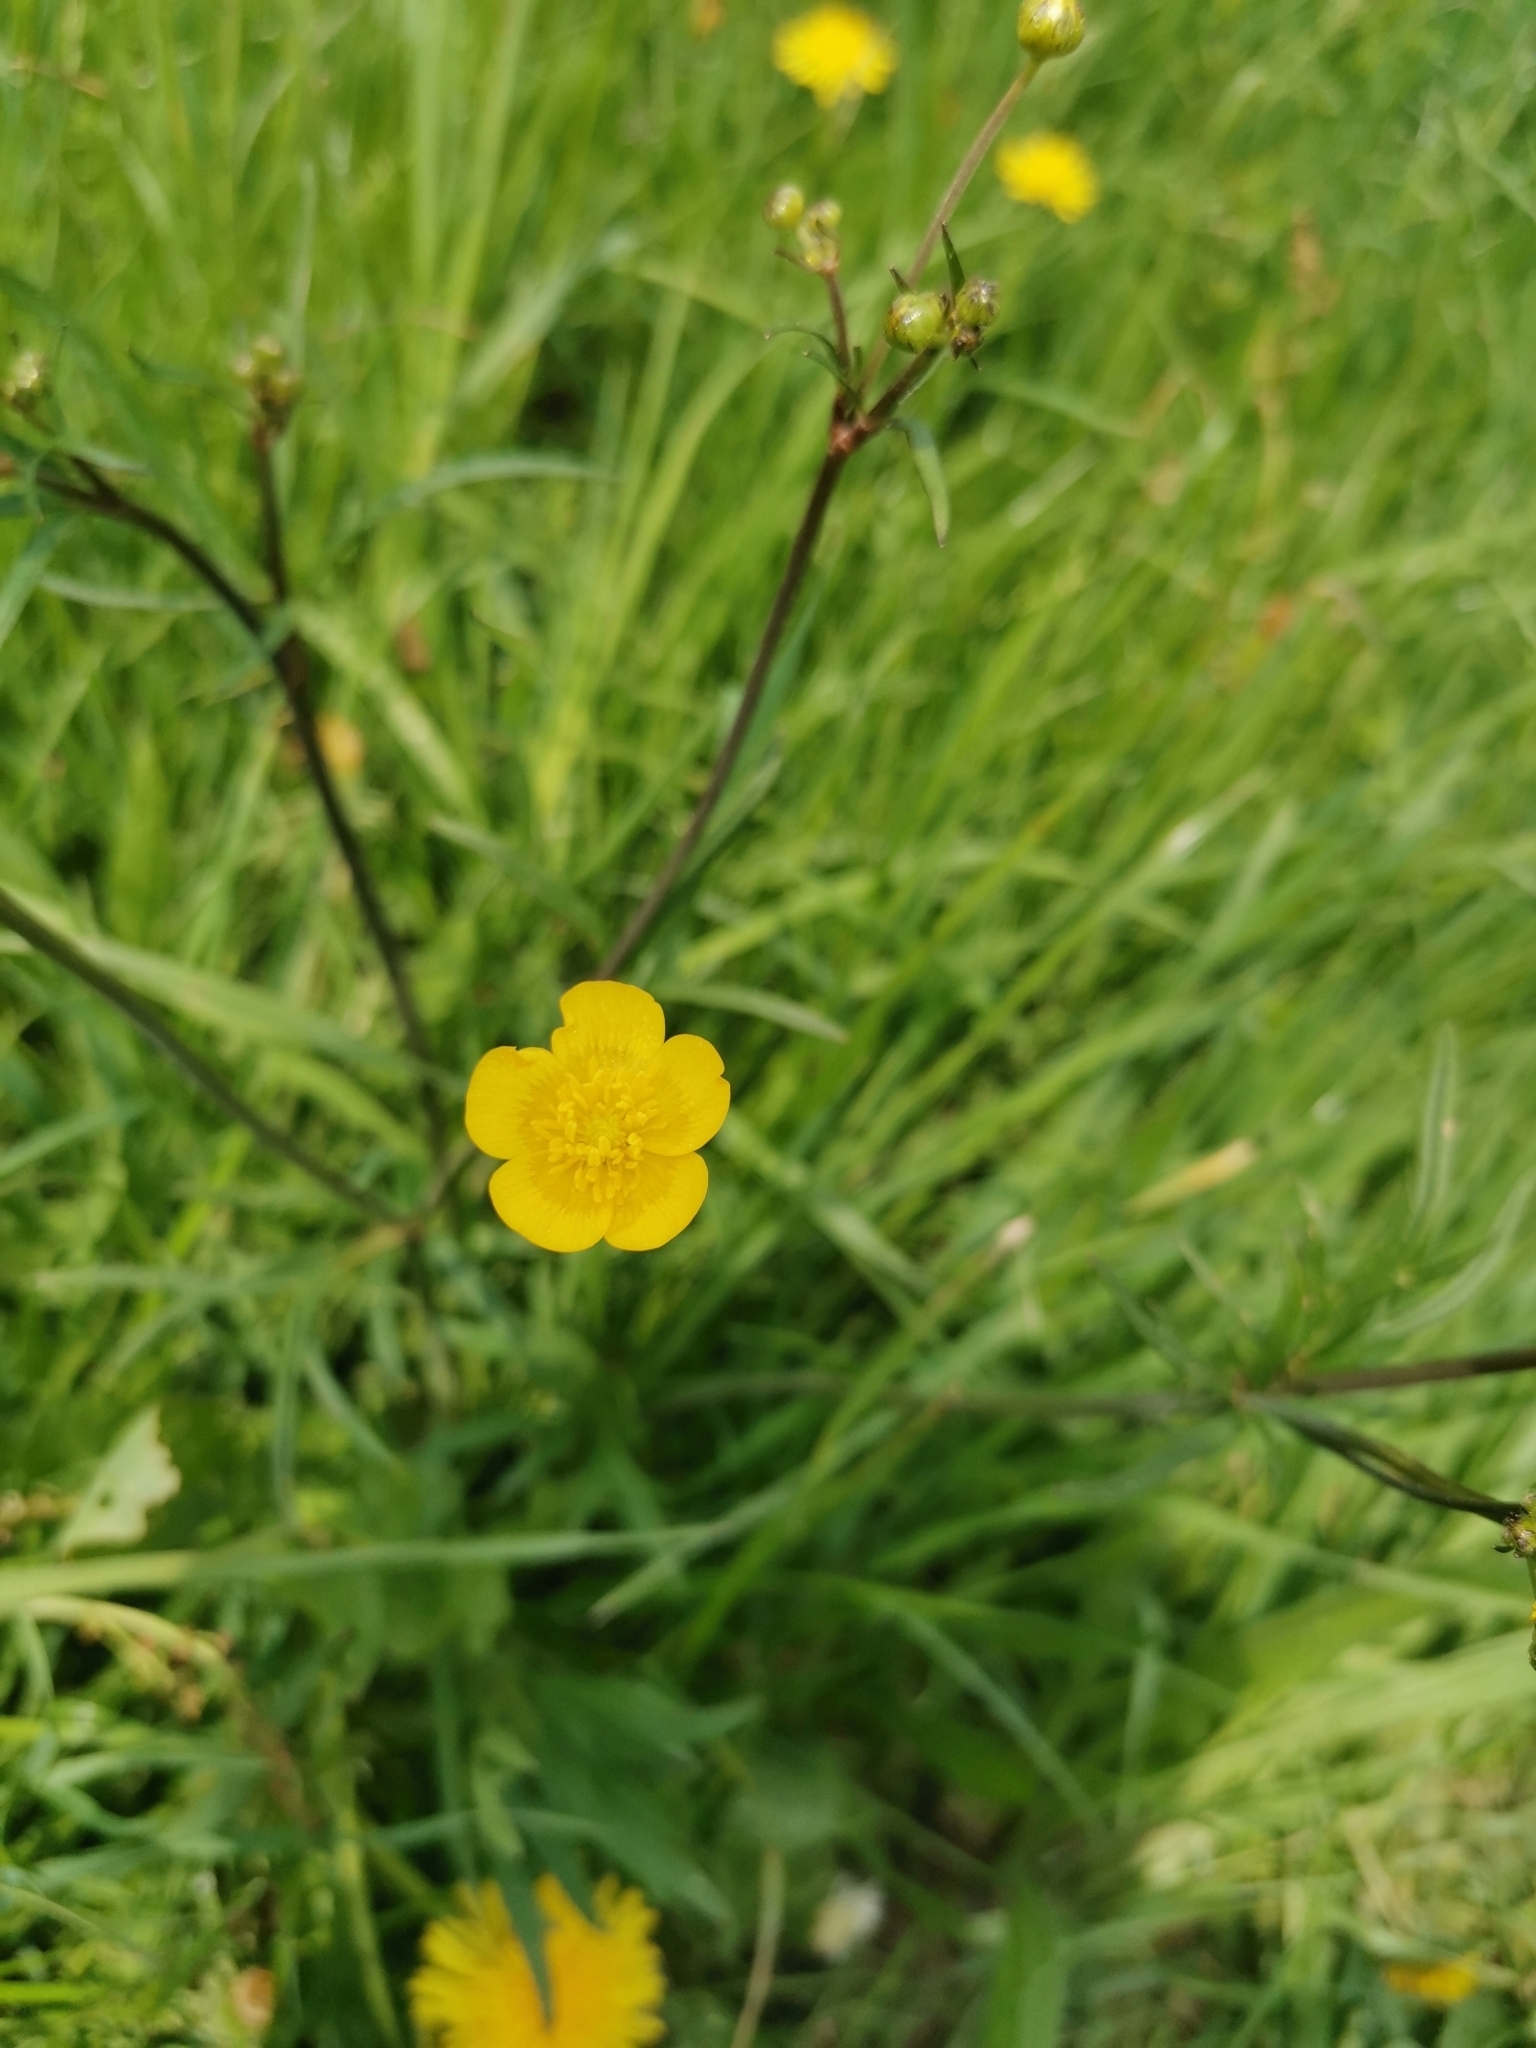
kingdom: Plantae
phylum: Tracheophyta
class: Magnoliopsida
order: Ranunculales
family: Ranunculaceae
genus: Ranunculus
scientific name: Ranunculus acris
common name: Meadow buttercup
